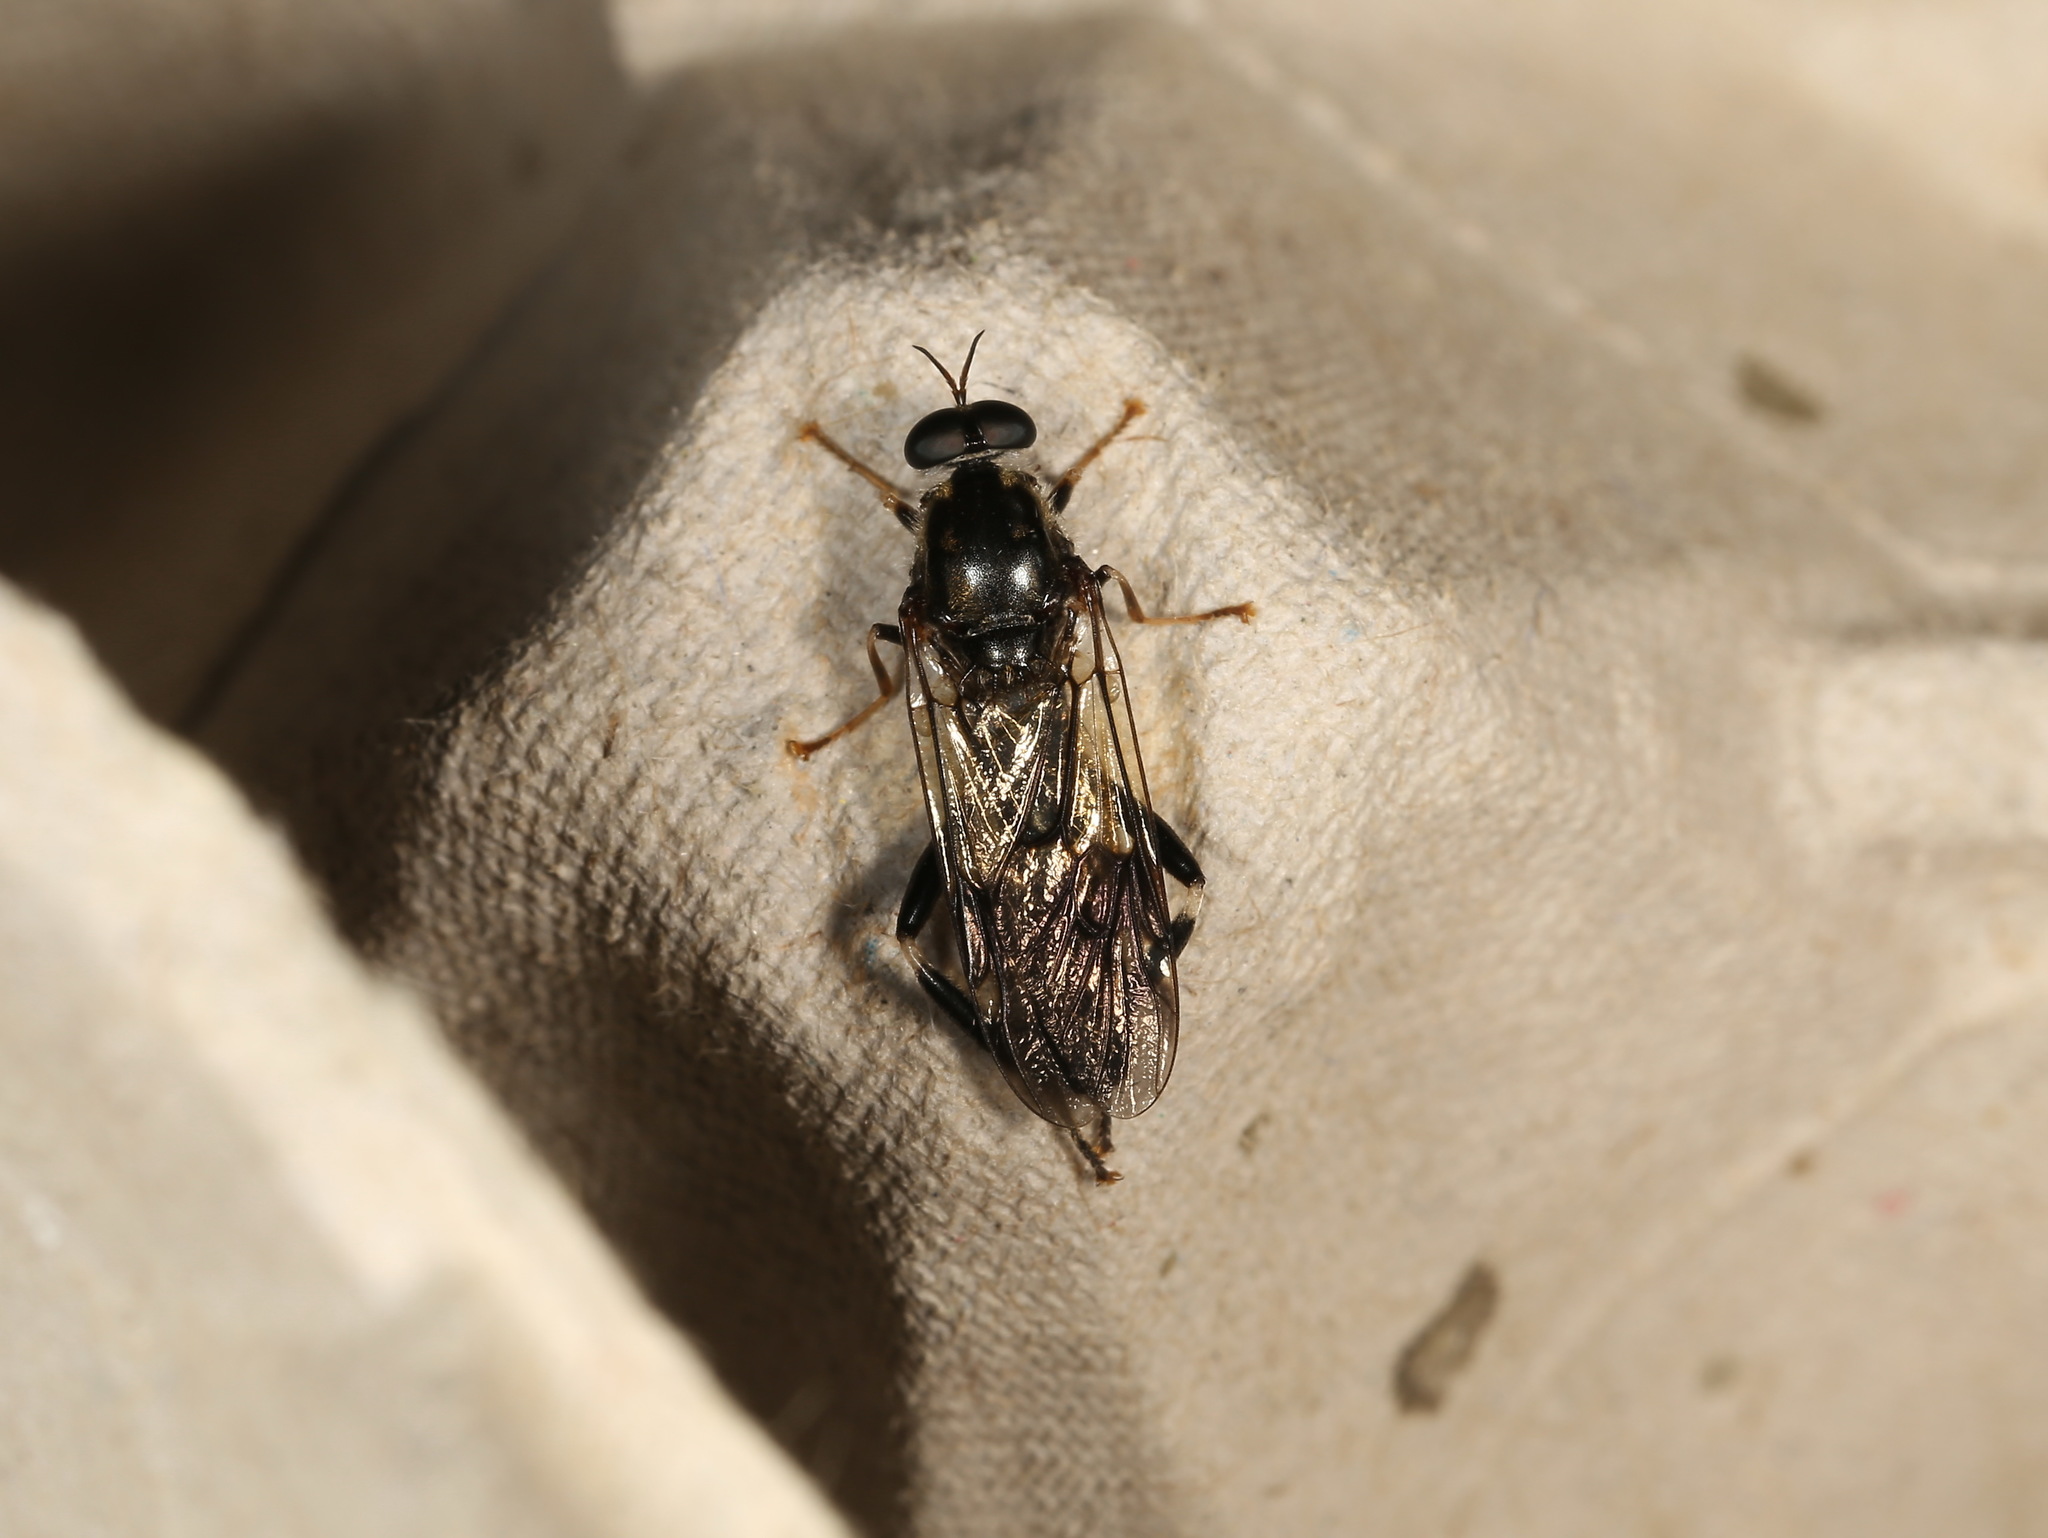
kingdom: Animalia
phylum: Arthropoda
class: Insecta
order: Diptera
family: Stratiomyidae
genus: Exaireta
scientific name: Exaireta spinigera
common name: Blue soldier fly
